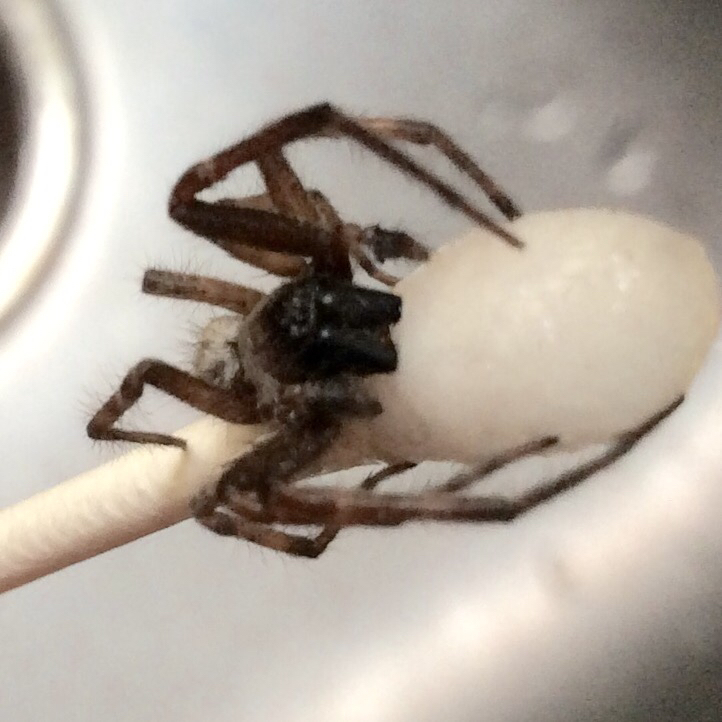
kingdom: Animalia
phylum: Arthropoda
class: Arachnida
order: Araneae
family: Desidae
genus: Badumna
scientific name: Badumna longinqua
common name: Gray house spider
